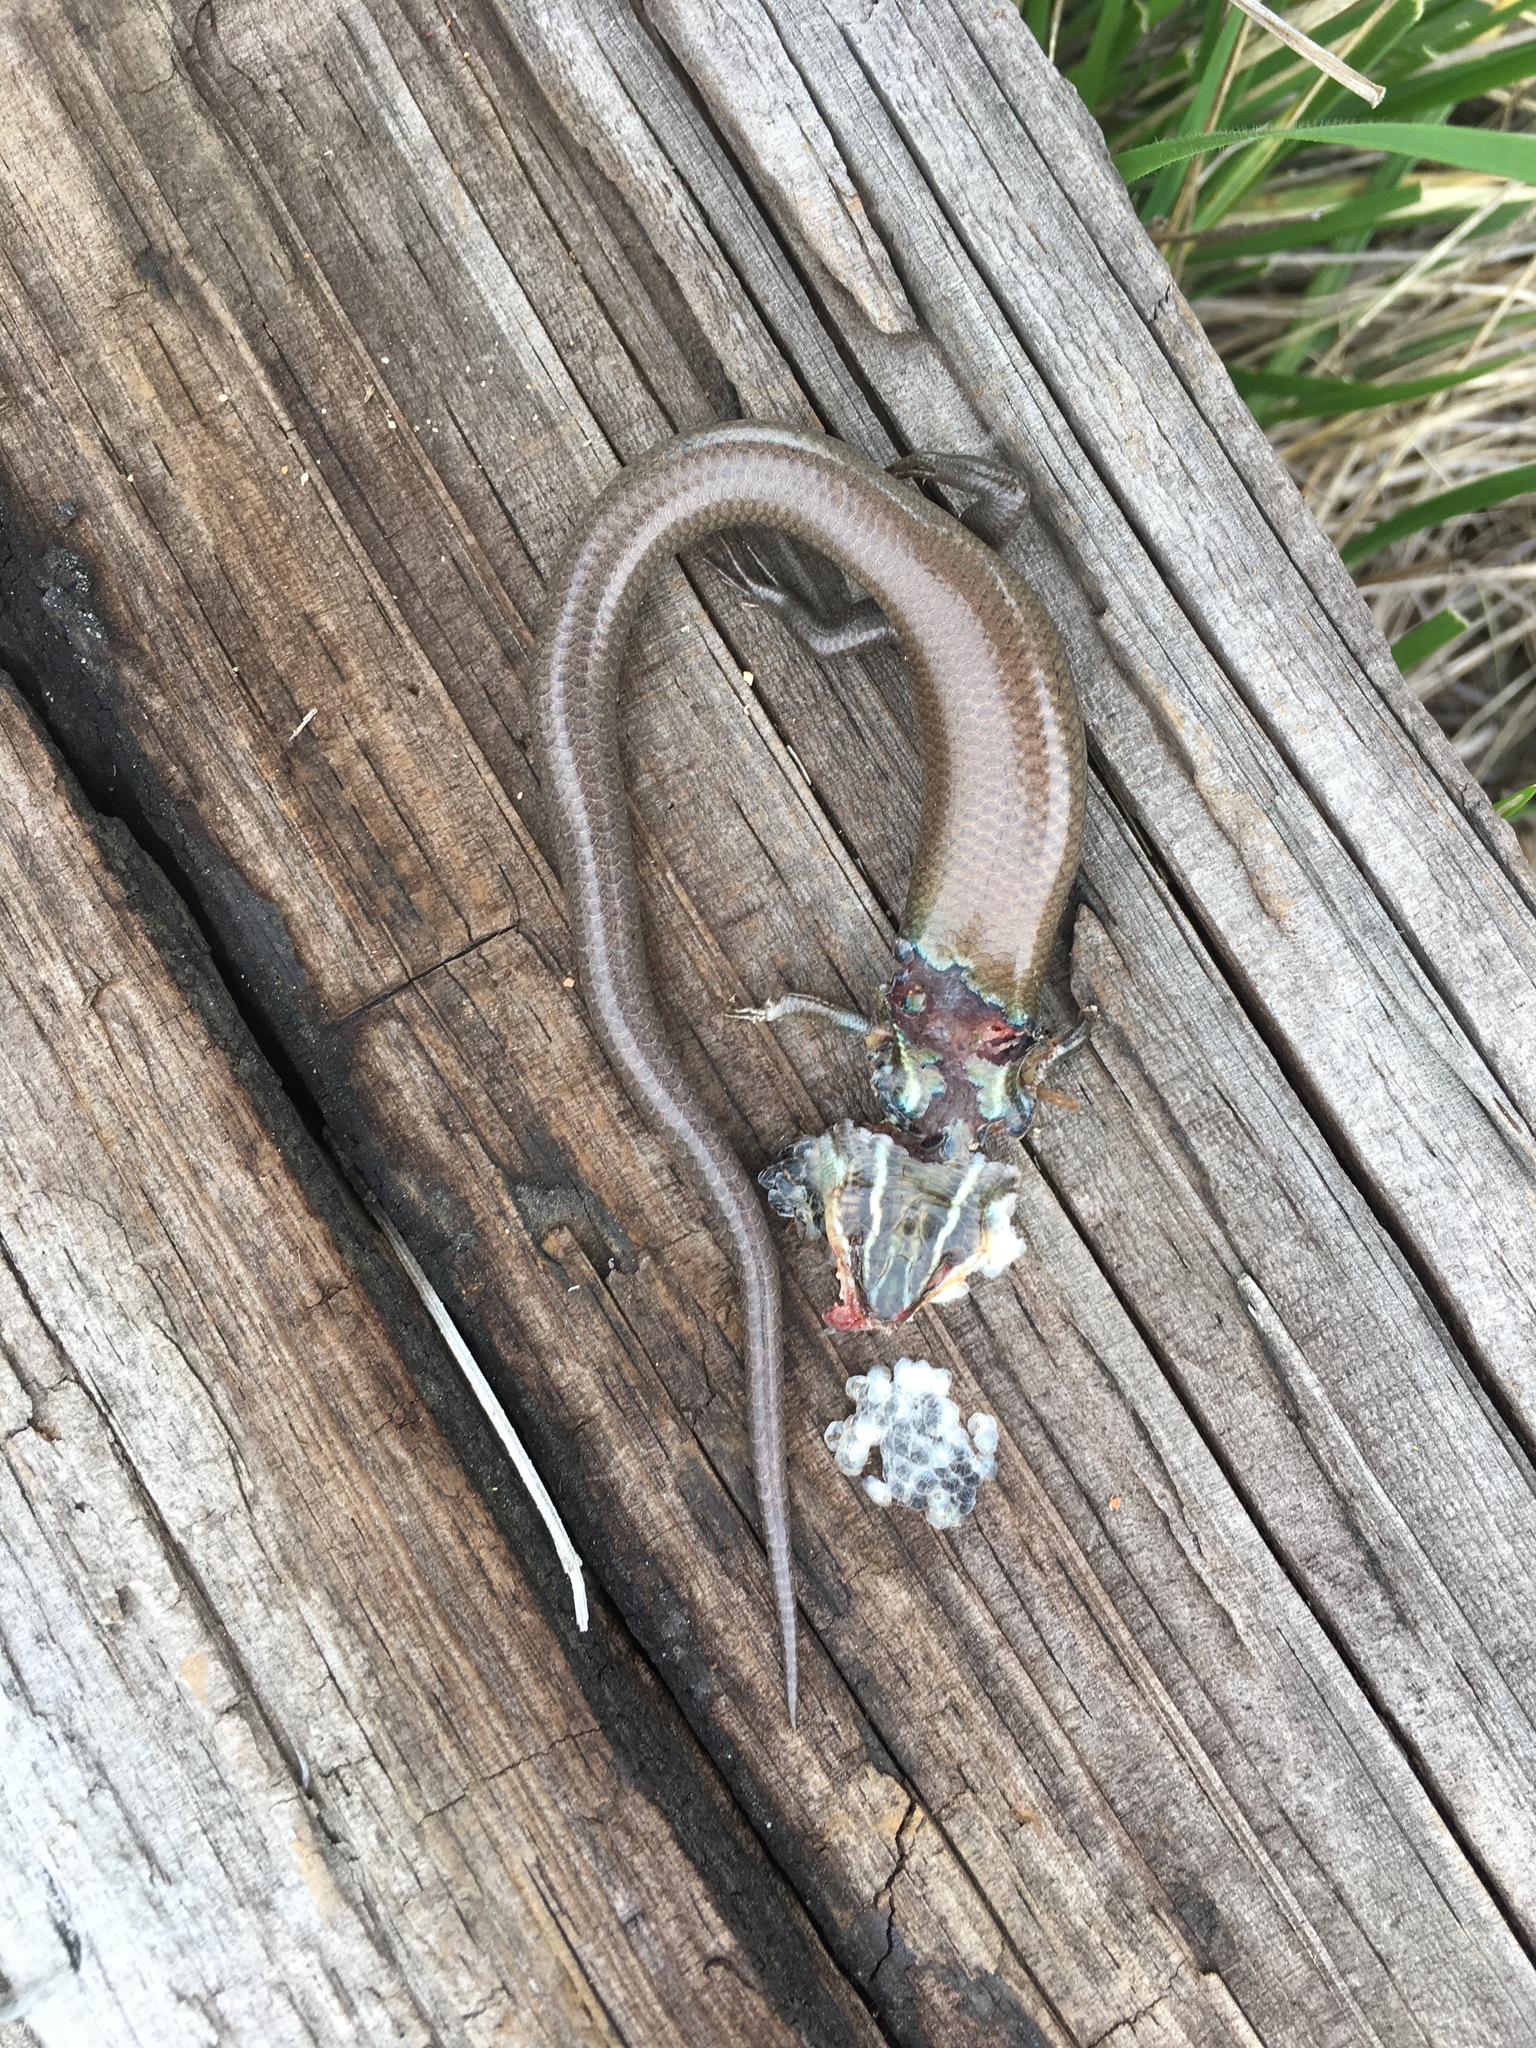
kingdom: Animalia
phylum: Chordata
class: Squamata
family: Scincidae
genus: Plestiodon
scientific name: Plestiodon tetragrammus
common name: Four-lined skink
